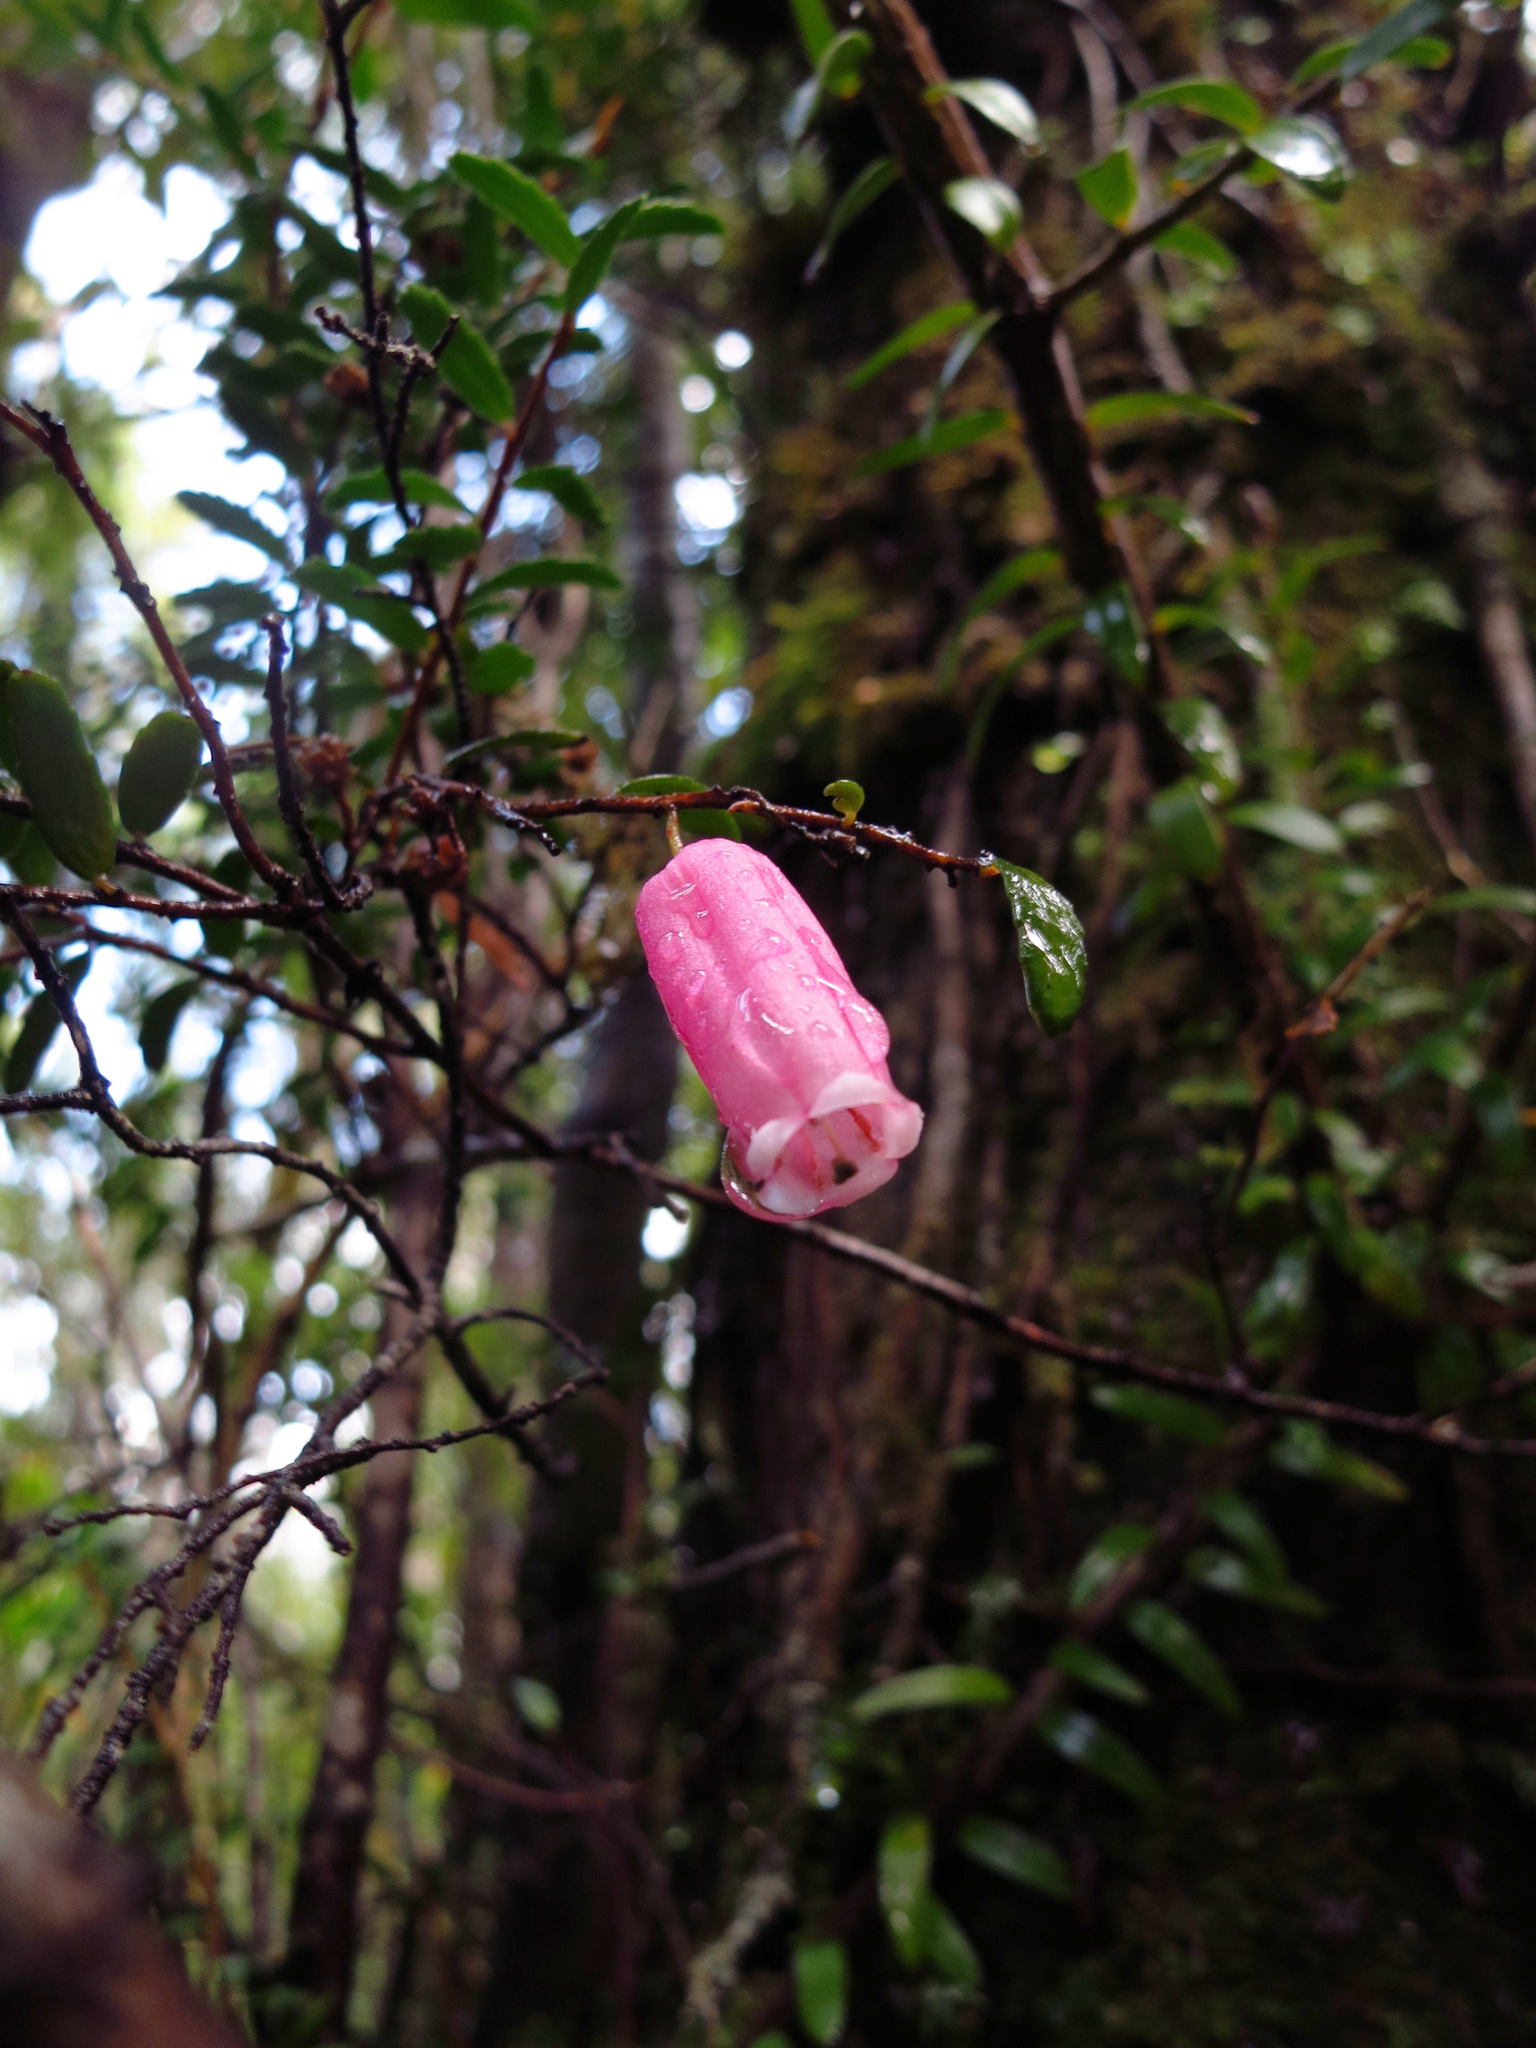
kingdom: Plantae
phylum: Tracheophyta
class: Magnoliopsida
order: Ericales
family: Ericaceae
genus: Prionotes
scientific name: Prionotes cerinthoides
